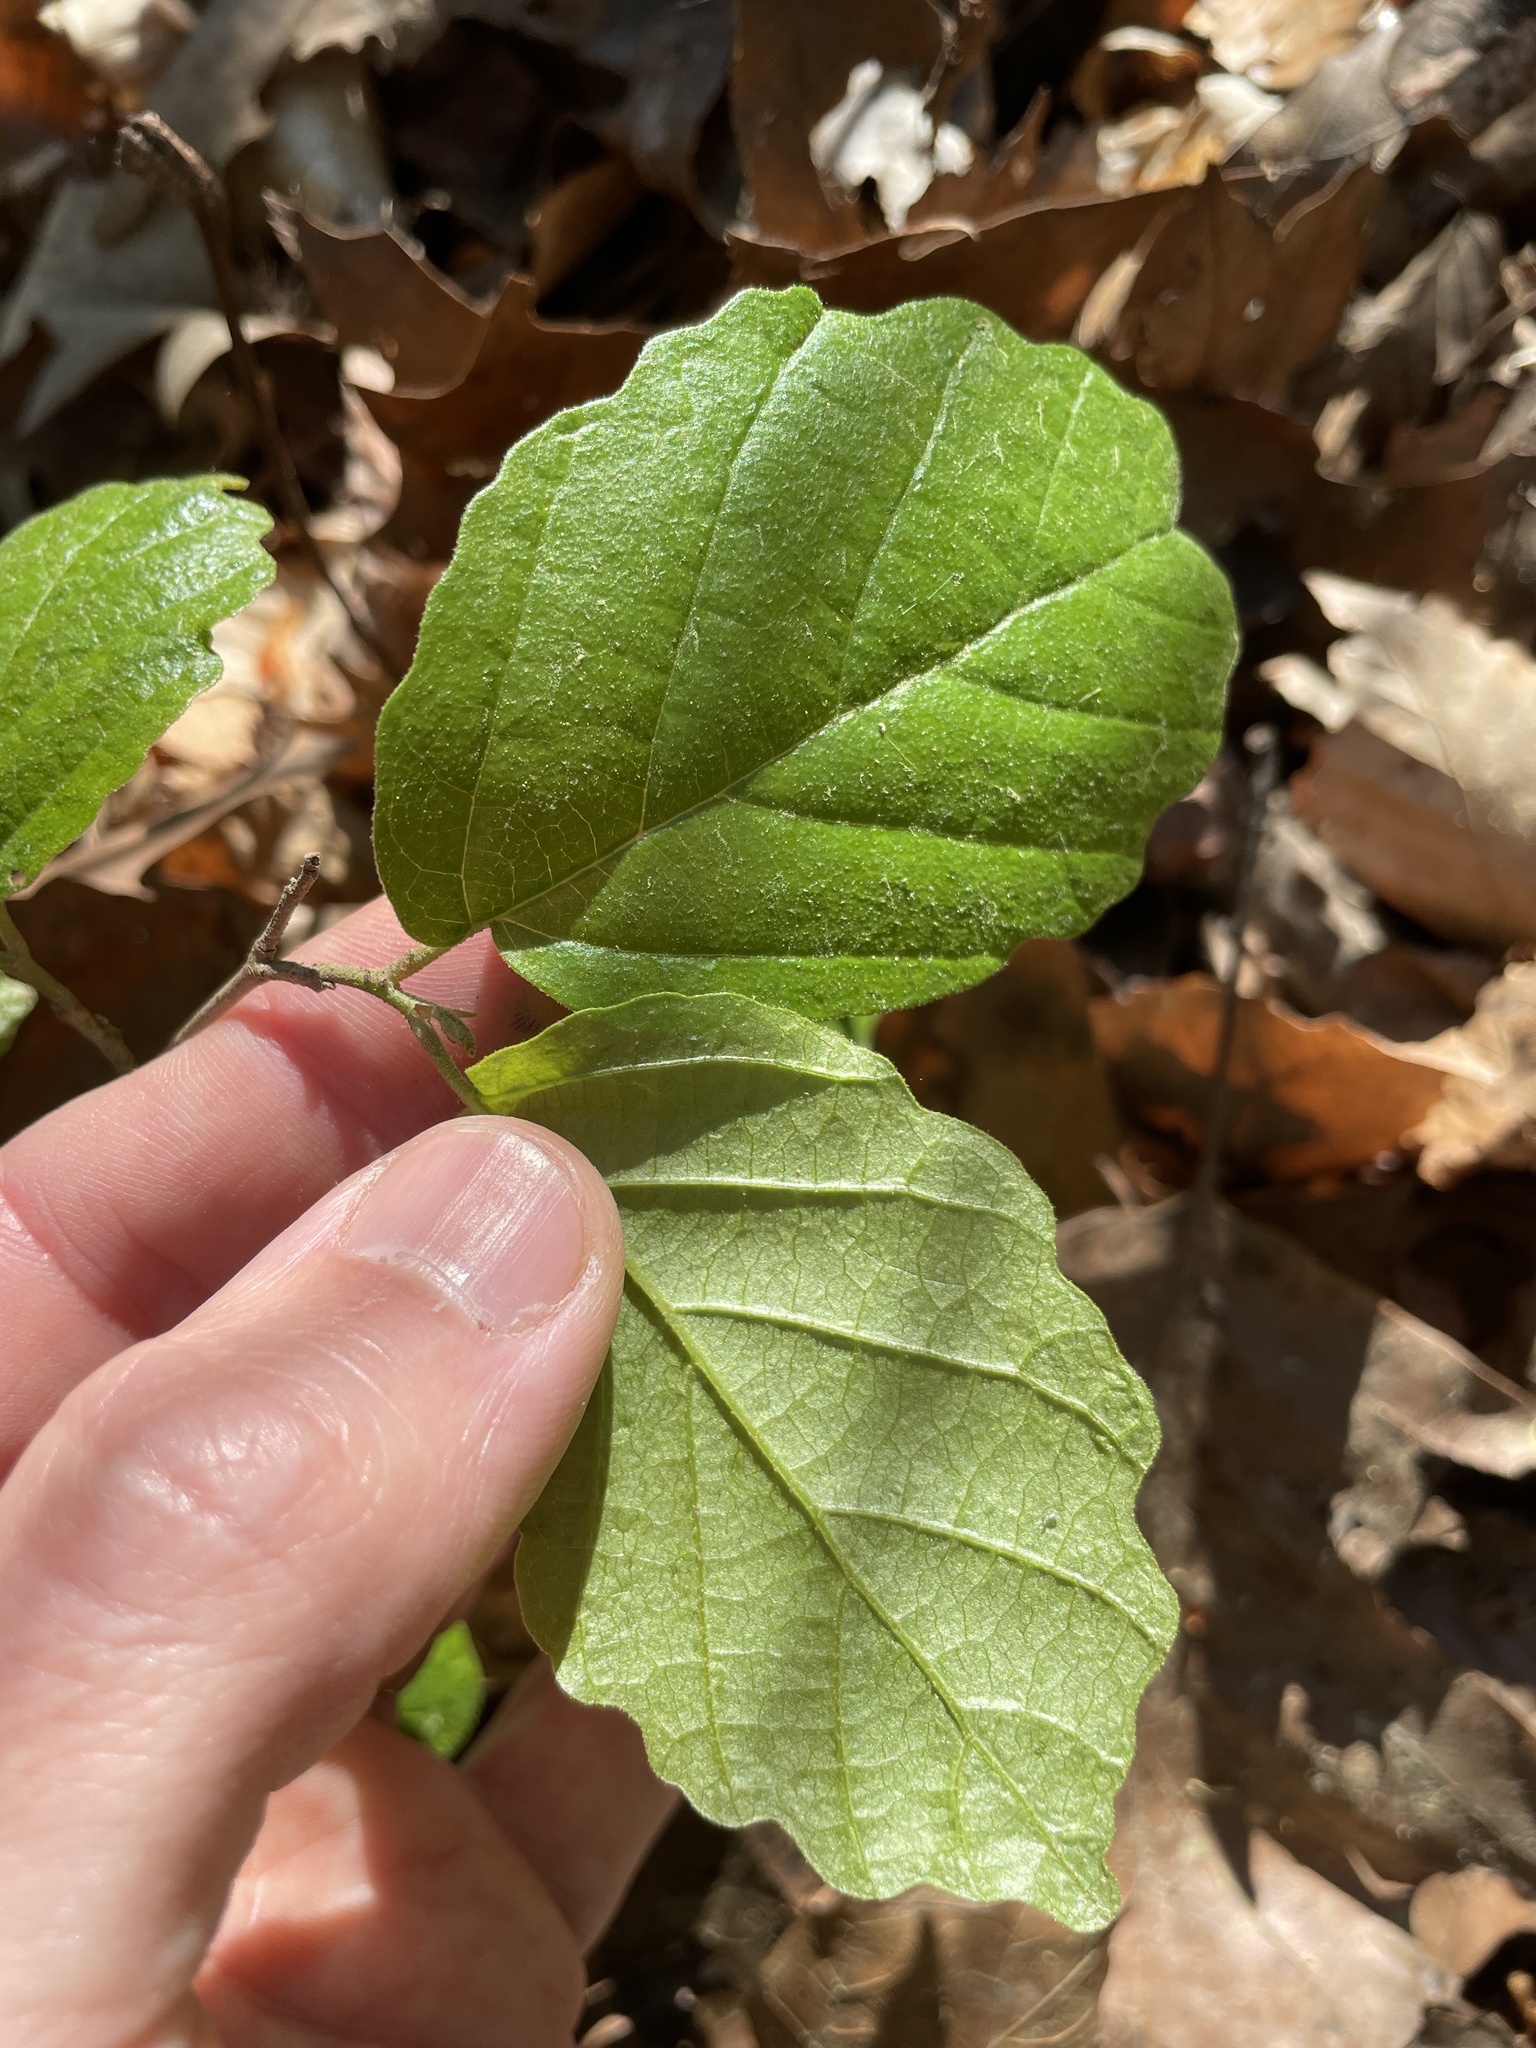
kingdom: Plantae
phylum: Tracheophyta
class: Magnoliopsida
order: Saxifragales
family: Hamamelidaceae
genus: Hamamelis
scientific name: Hamamelis virginiana
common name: Witch-hazel
